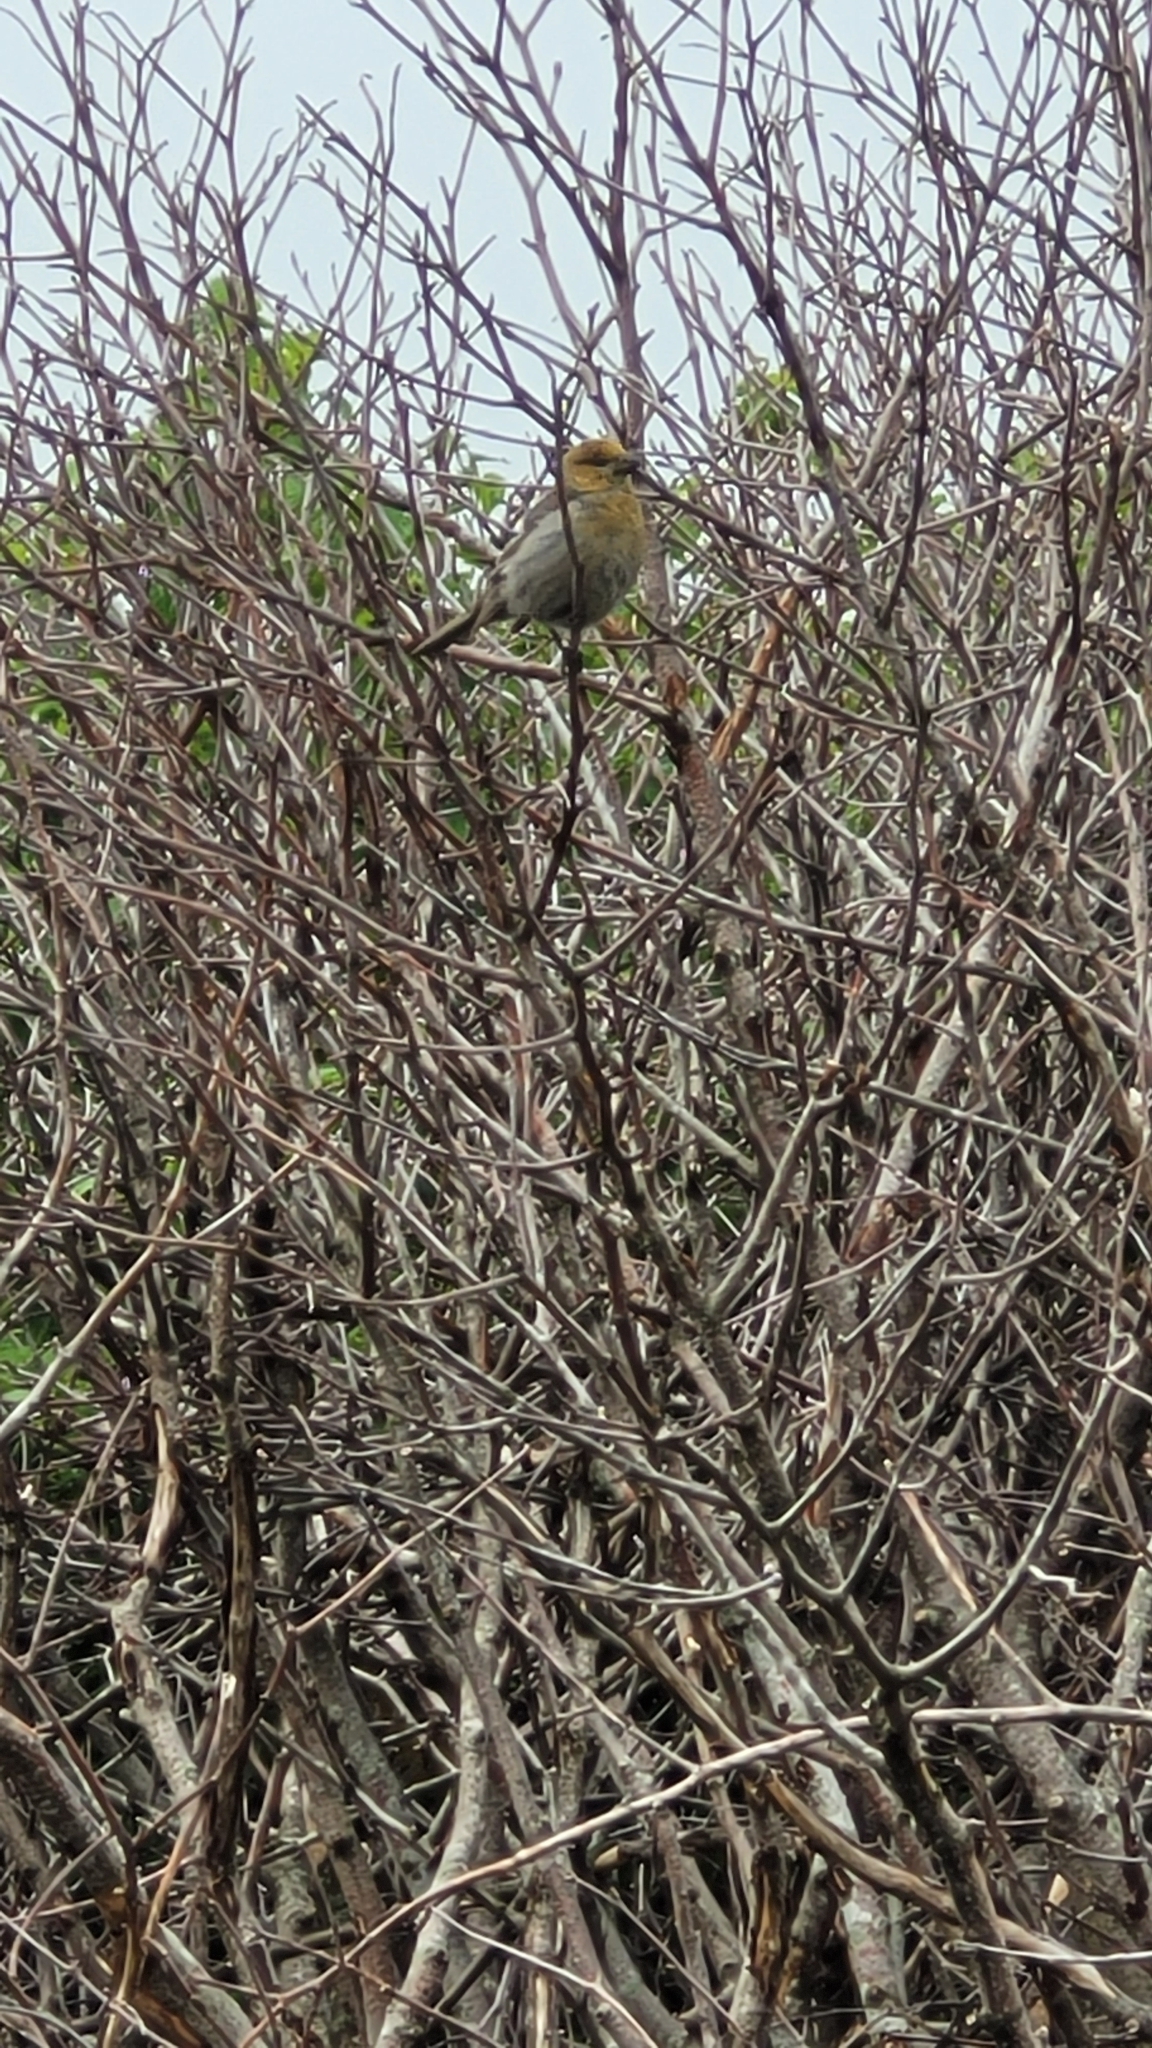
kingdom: Animalia
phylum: Chordata
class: Aves
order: Passeriformes
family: Fringillidae
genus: Pinicola
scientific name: Pinicola enucleator
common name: Pine grosbeak
